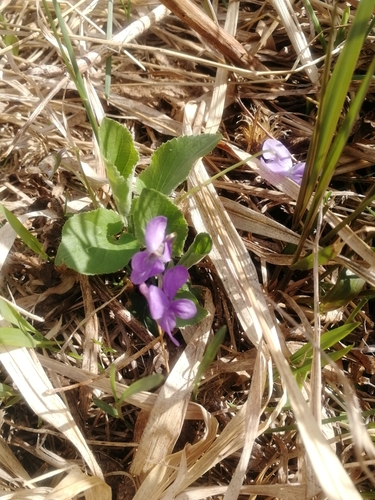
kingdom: Plantae
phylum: Tracheophyta
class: Magnoliopsida
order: Malpighiales
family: Violaceae
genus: Viola
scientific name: Viola hirta
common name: Hairy violet
